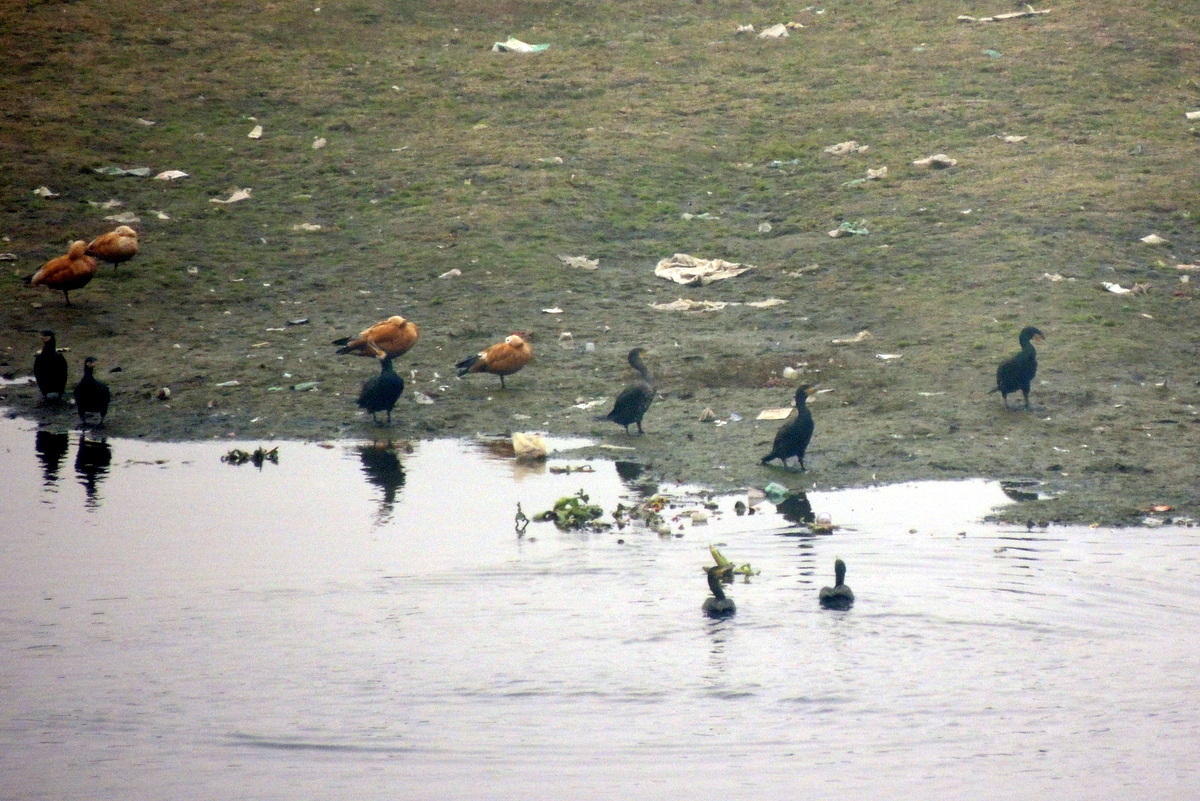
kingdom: Animalia
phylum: Chordata
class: Aves
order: Anseriformes
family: Anatidae
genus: Tadorna
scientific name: Tadorna ferruginea
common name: Ruddy shelduck
